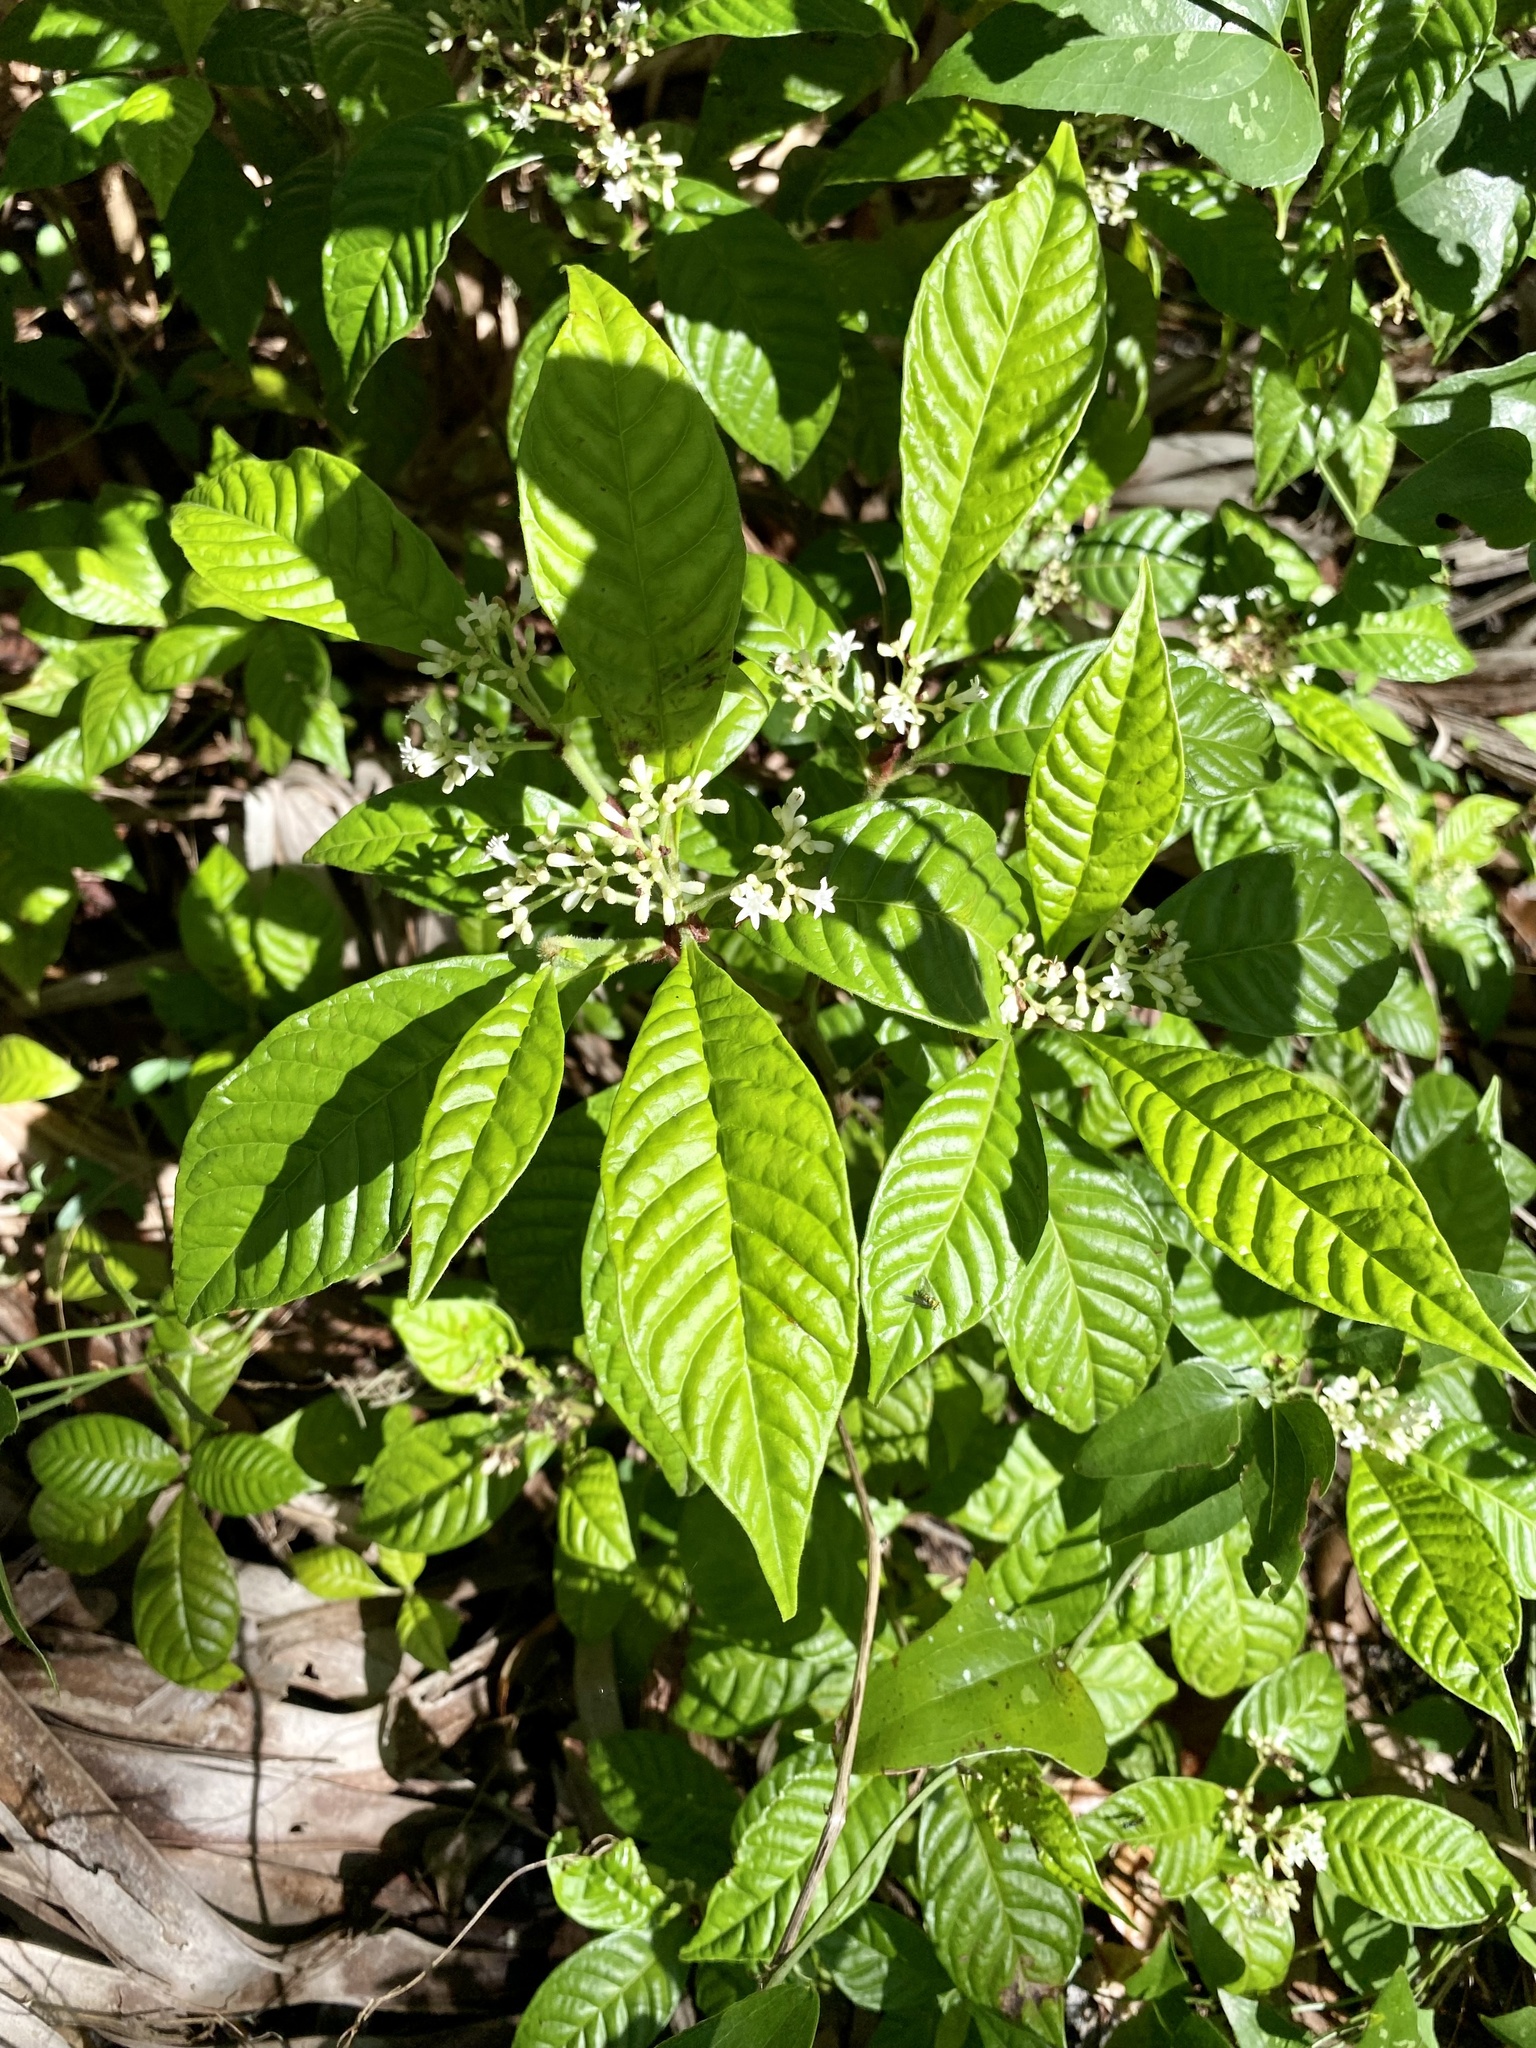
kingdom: Plantae
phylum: Tracheophyta
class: Magnoliopsida
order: Gentianales
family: Rubiaceae
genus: Psychotria
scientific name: Psychotria nervosa
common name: Bastard cankerberry
